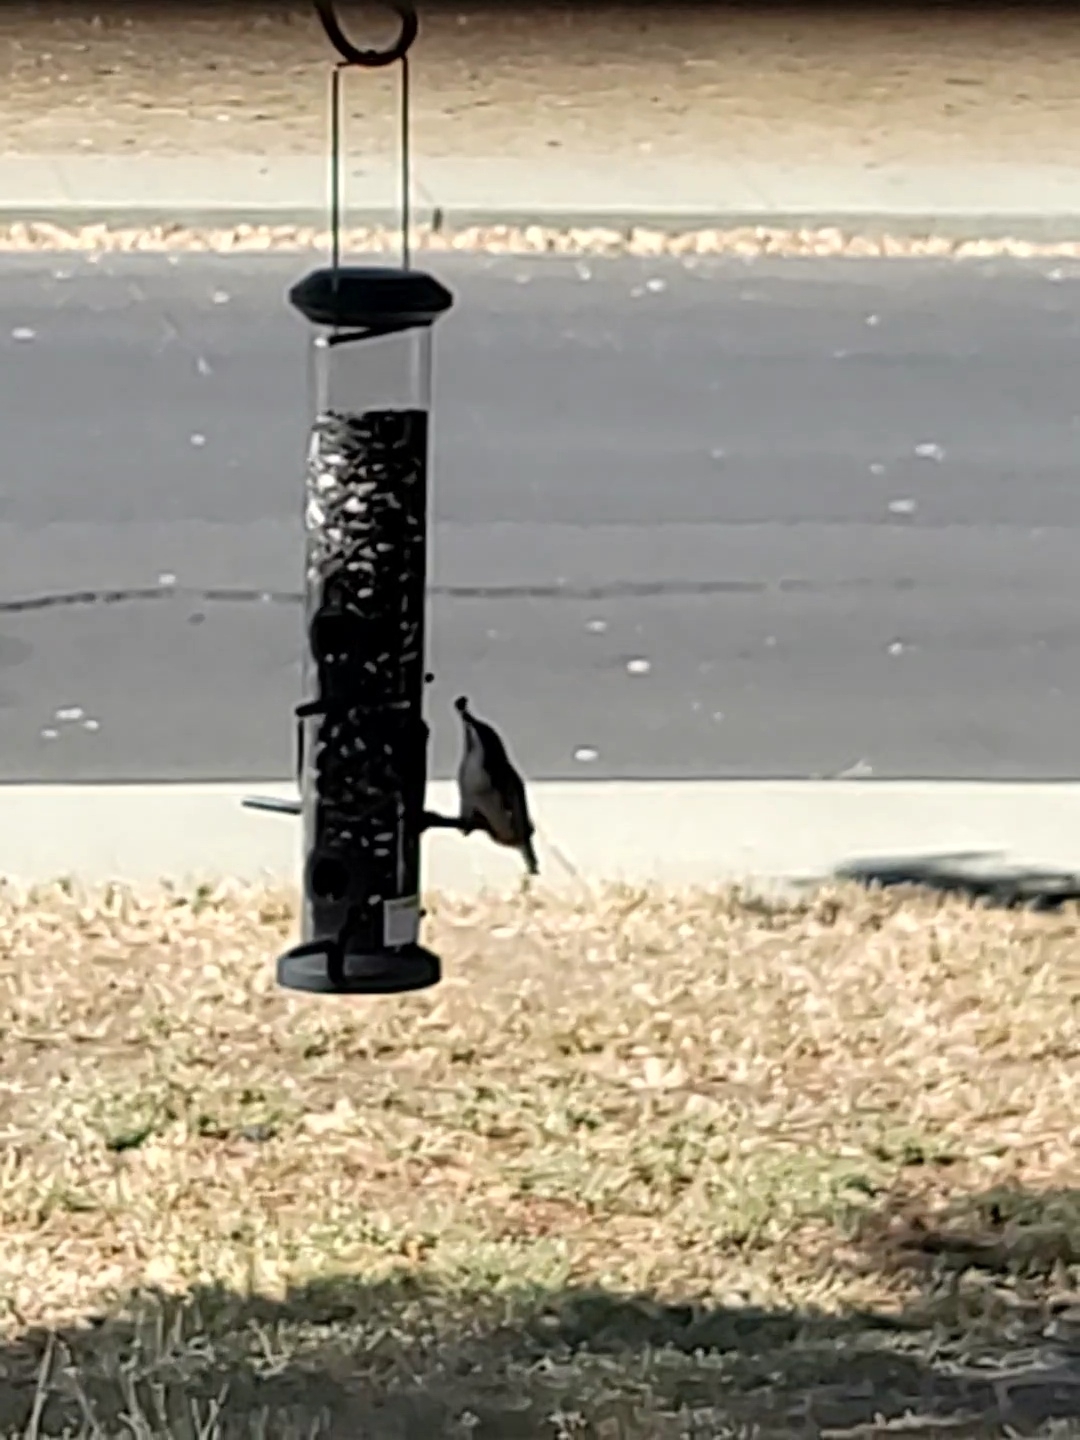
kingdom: Animalia
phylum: Chordata
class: Aves
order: Passeriformes
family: Sittidae
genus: Sitta
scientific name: Sitta carolinensis
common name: White-breasted nuthatch
